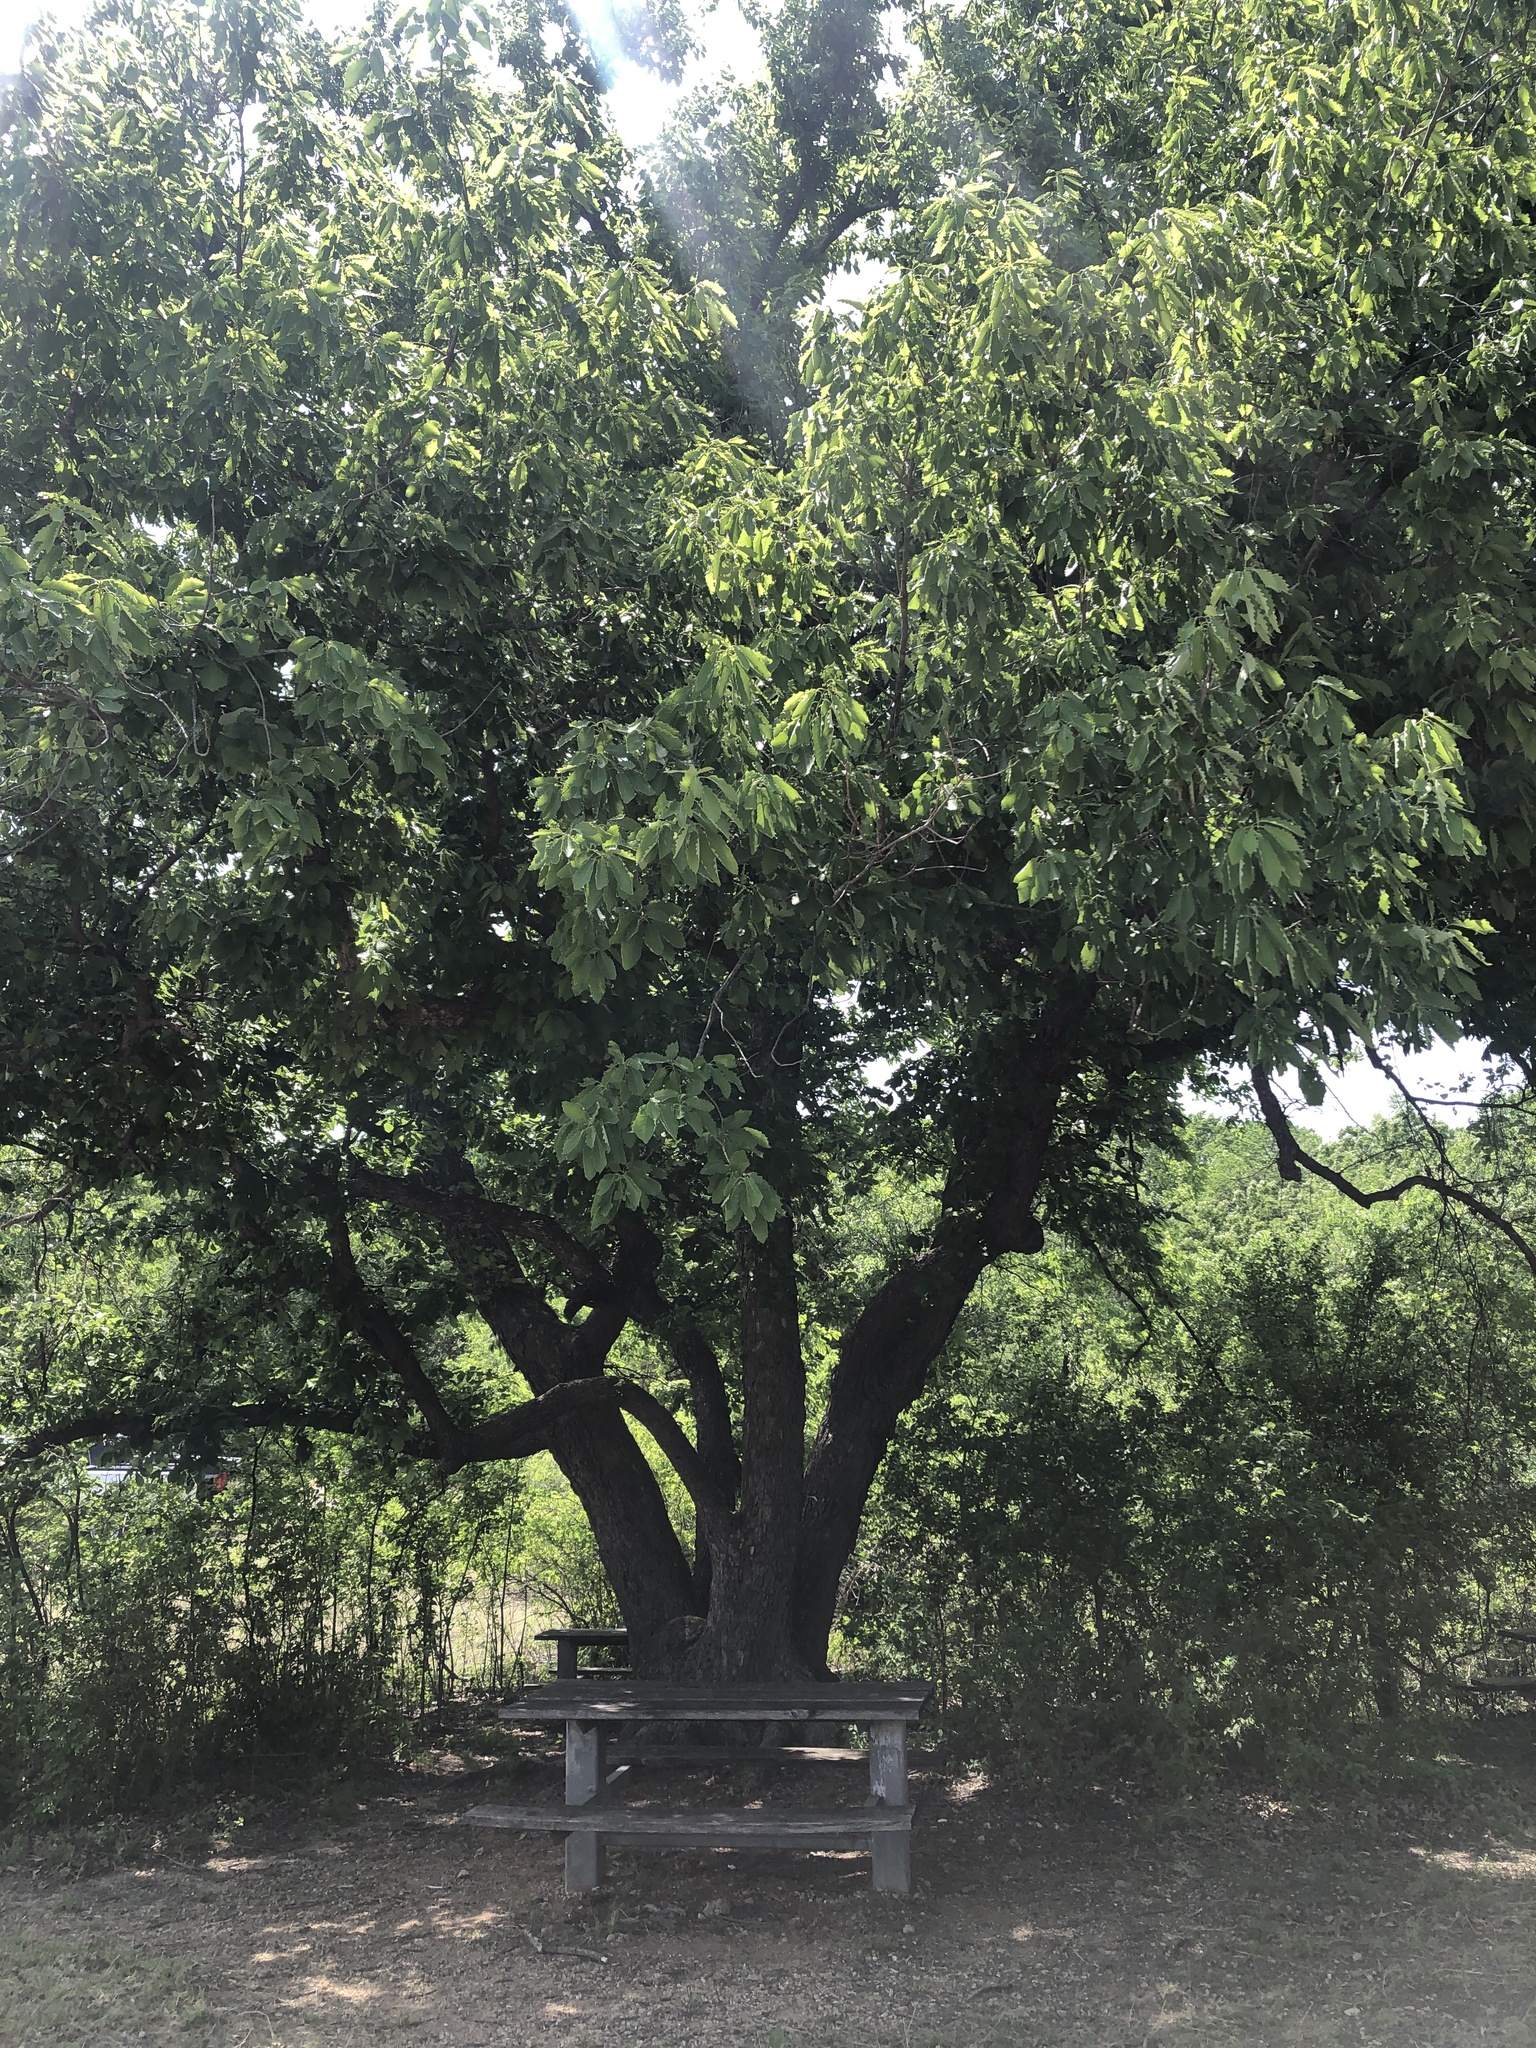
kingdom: Plantae
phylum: Tracheophyta
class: Magnoliopsida
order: Fagales
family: Fagaceae
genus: Quercus
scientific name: Quercus muehlenbergii
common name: Chinkapin oak
